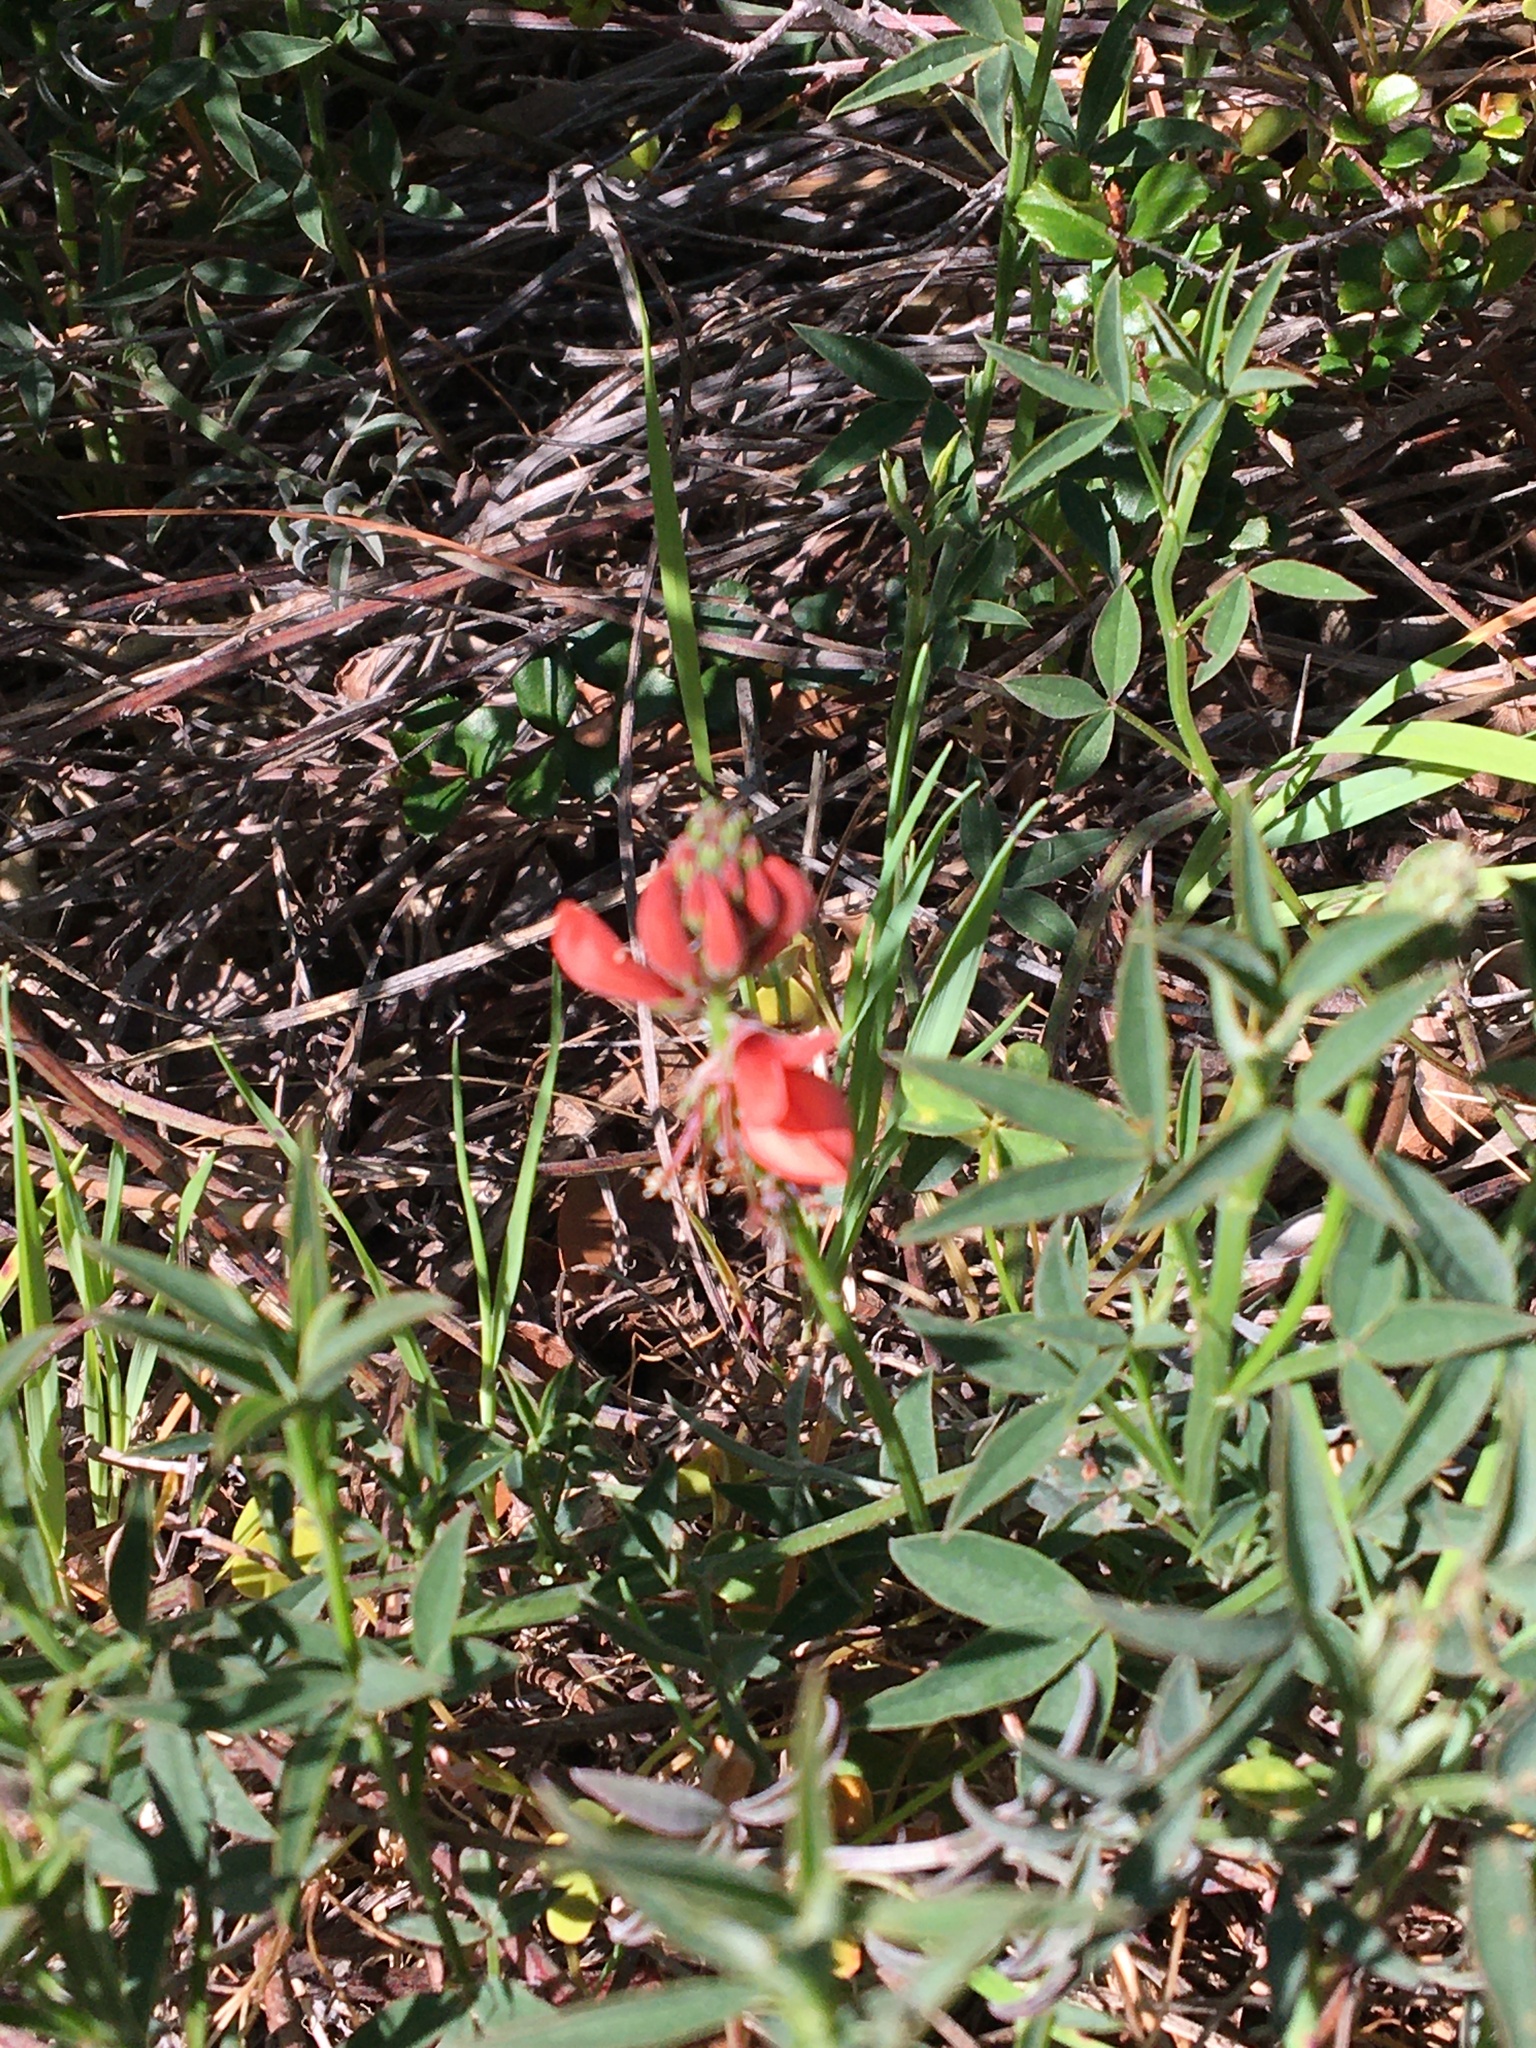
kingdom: Plantae
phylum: Tracheophyta
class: Magnoliopsida
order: Fabales
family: Fabaceae
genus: Indigofera
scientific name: Indigofera complanata
